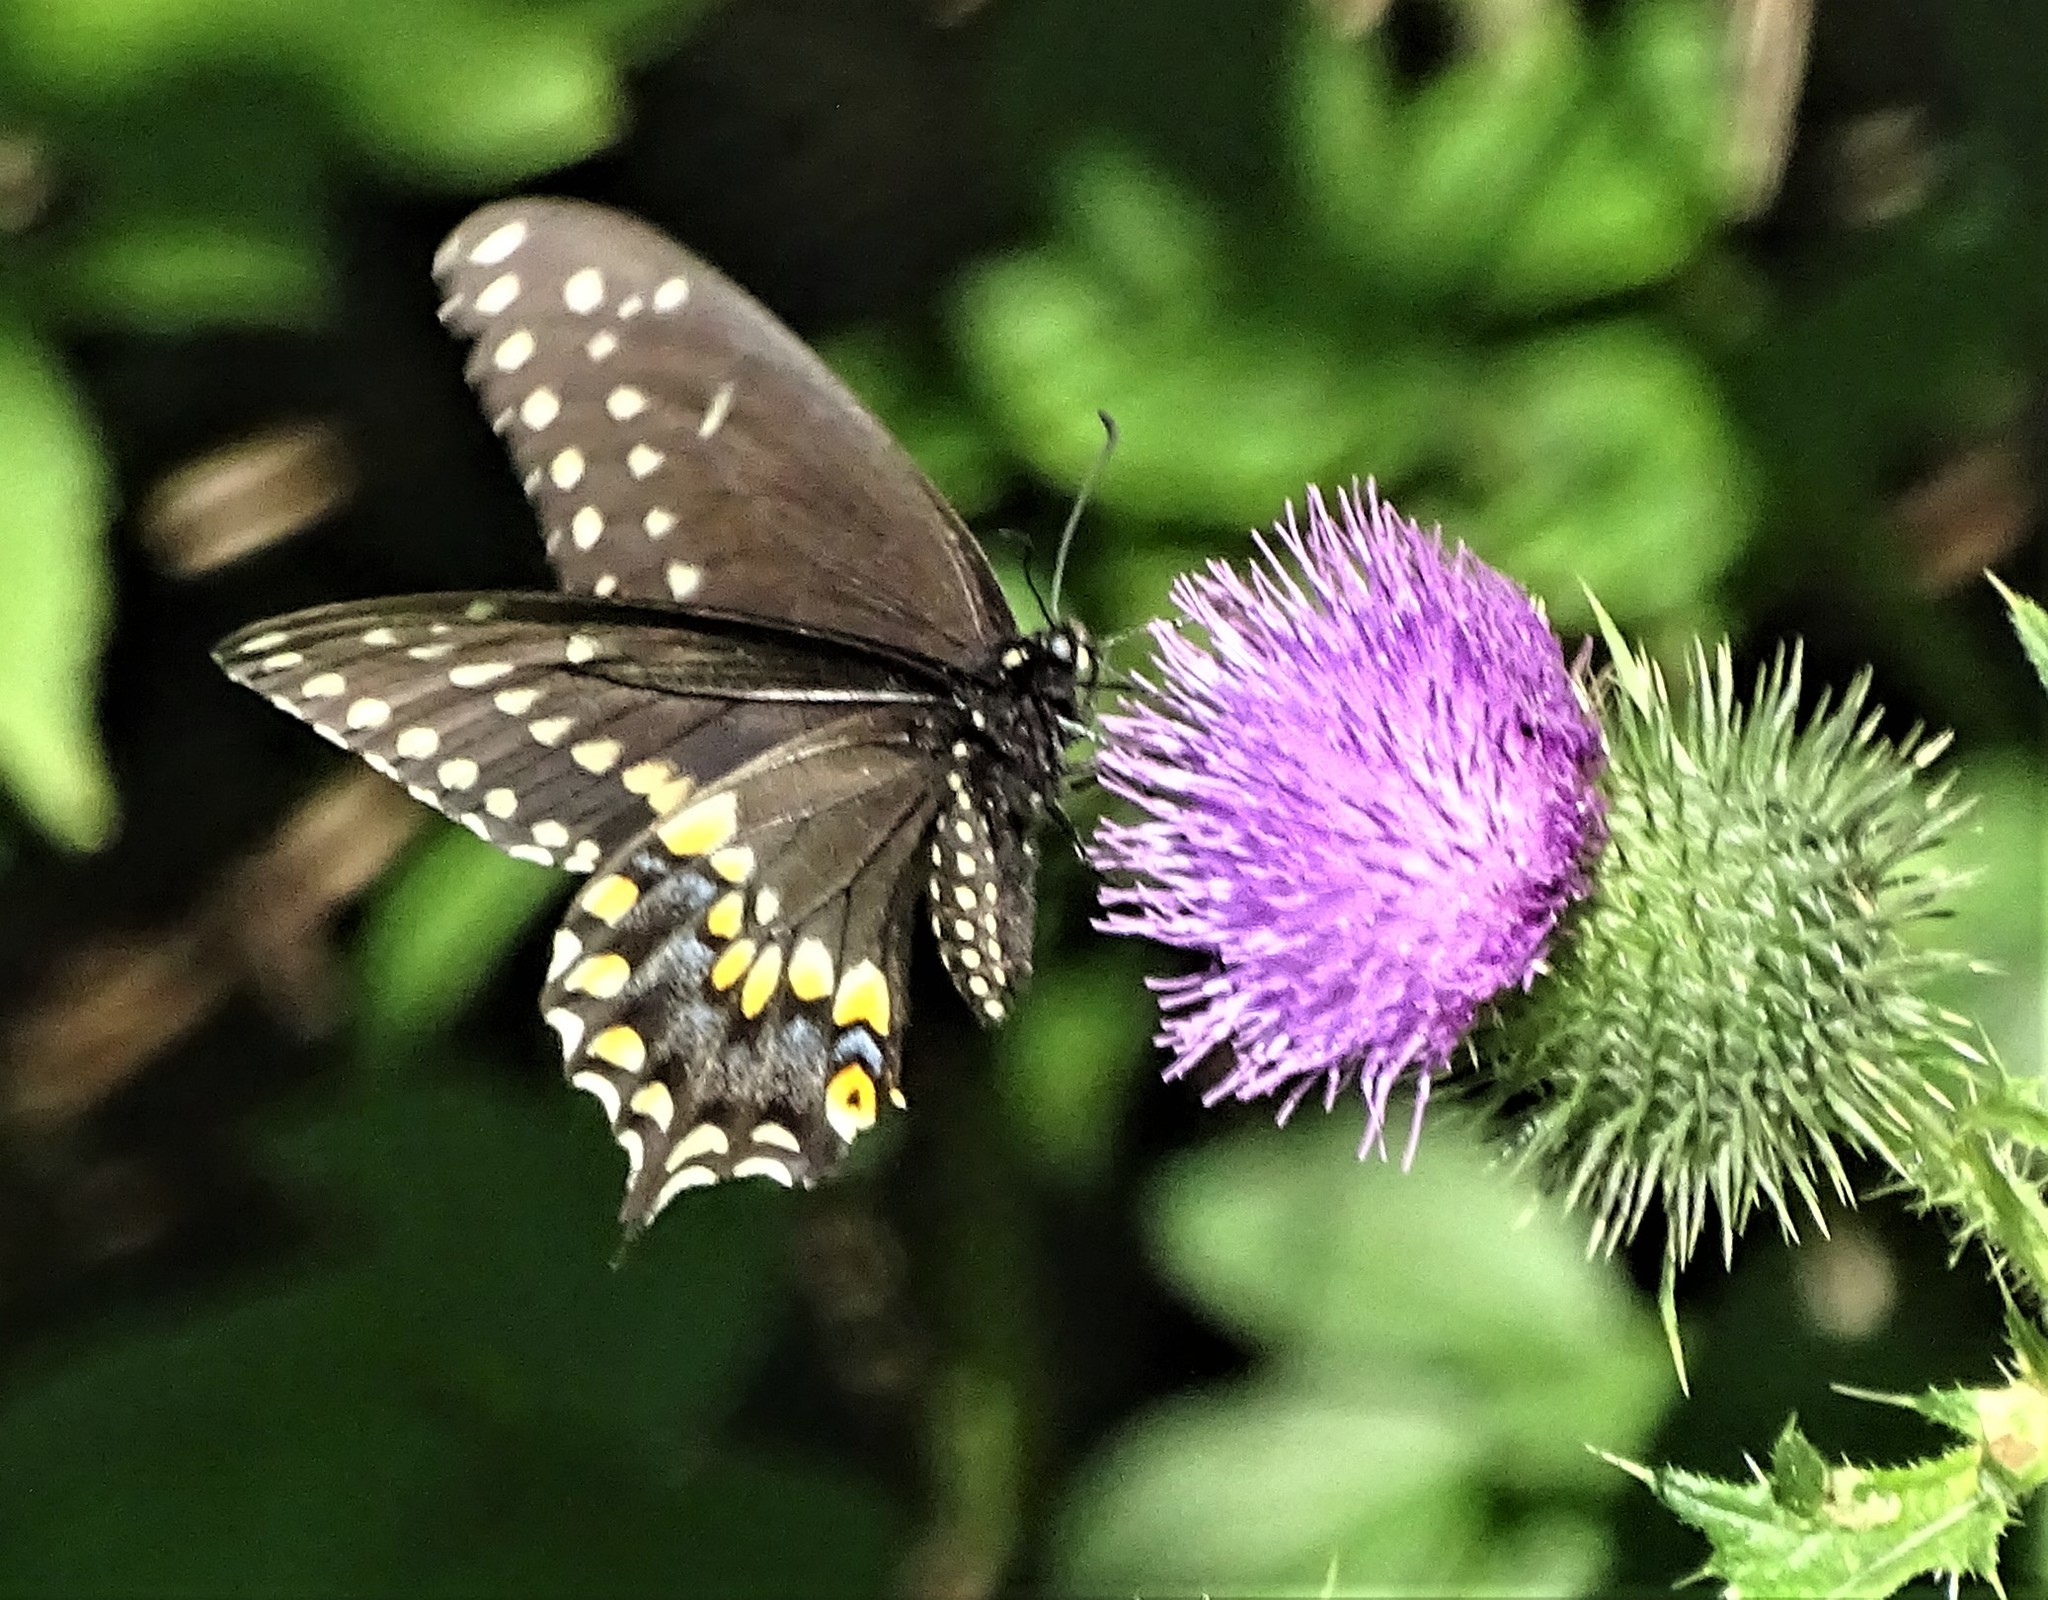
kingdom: Animalia
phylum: Arthropoda
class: Insecta
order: Lepidoptera
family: Papilionidae
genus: Papilio
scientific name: Papilio polyxenes
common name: Black swallowtail
